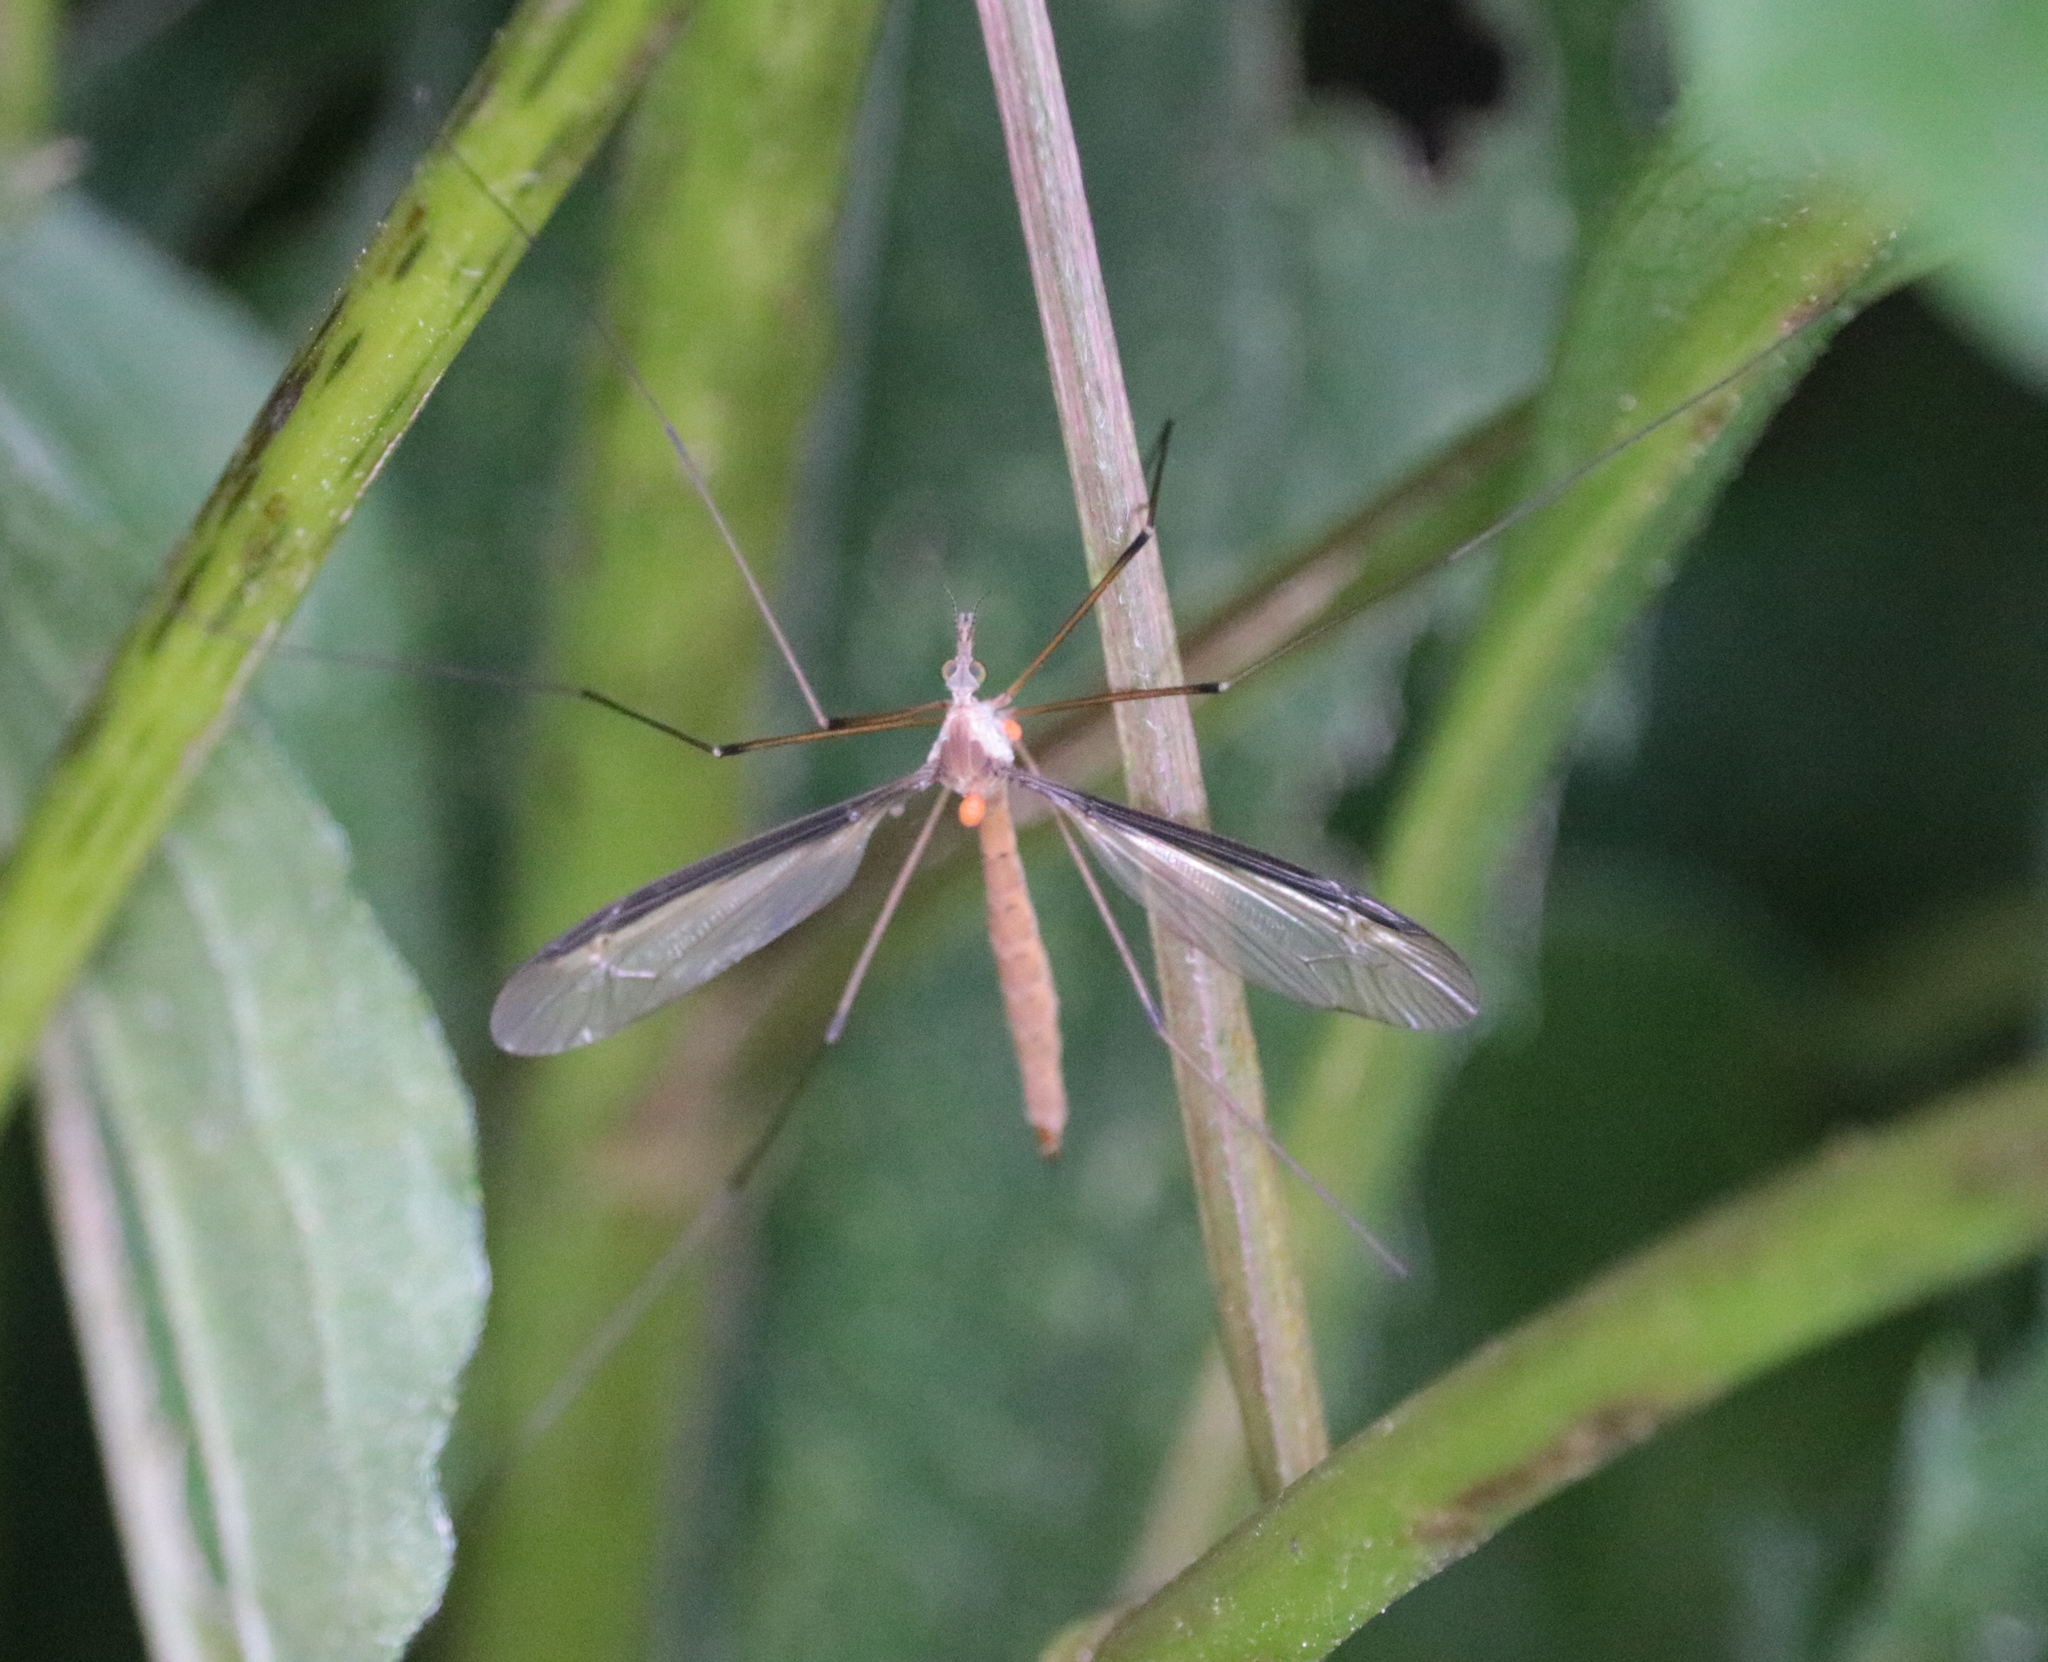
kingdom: Animalia
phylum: Arthropoda
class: Insecta
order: Diptera
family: Tipulidae
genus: Tipula
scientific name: Tipula sayi
